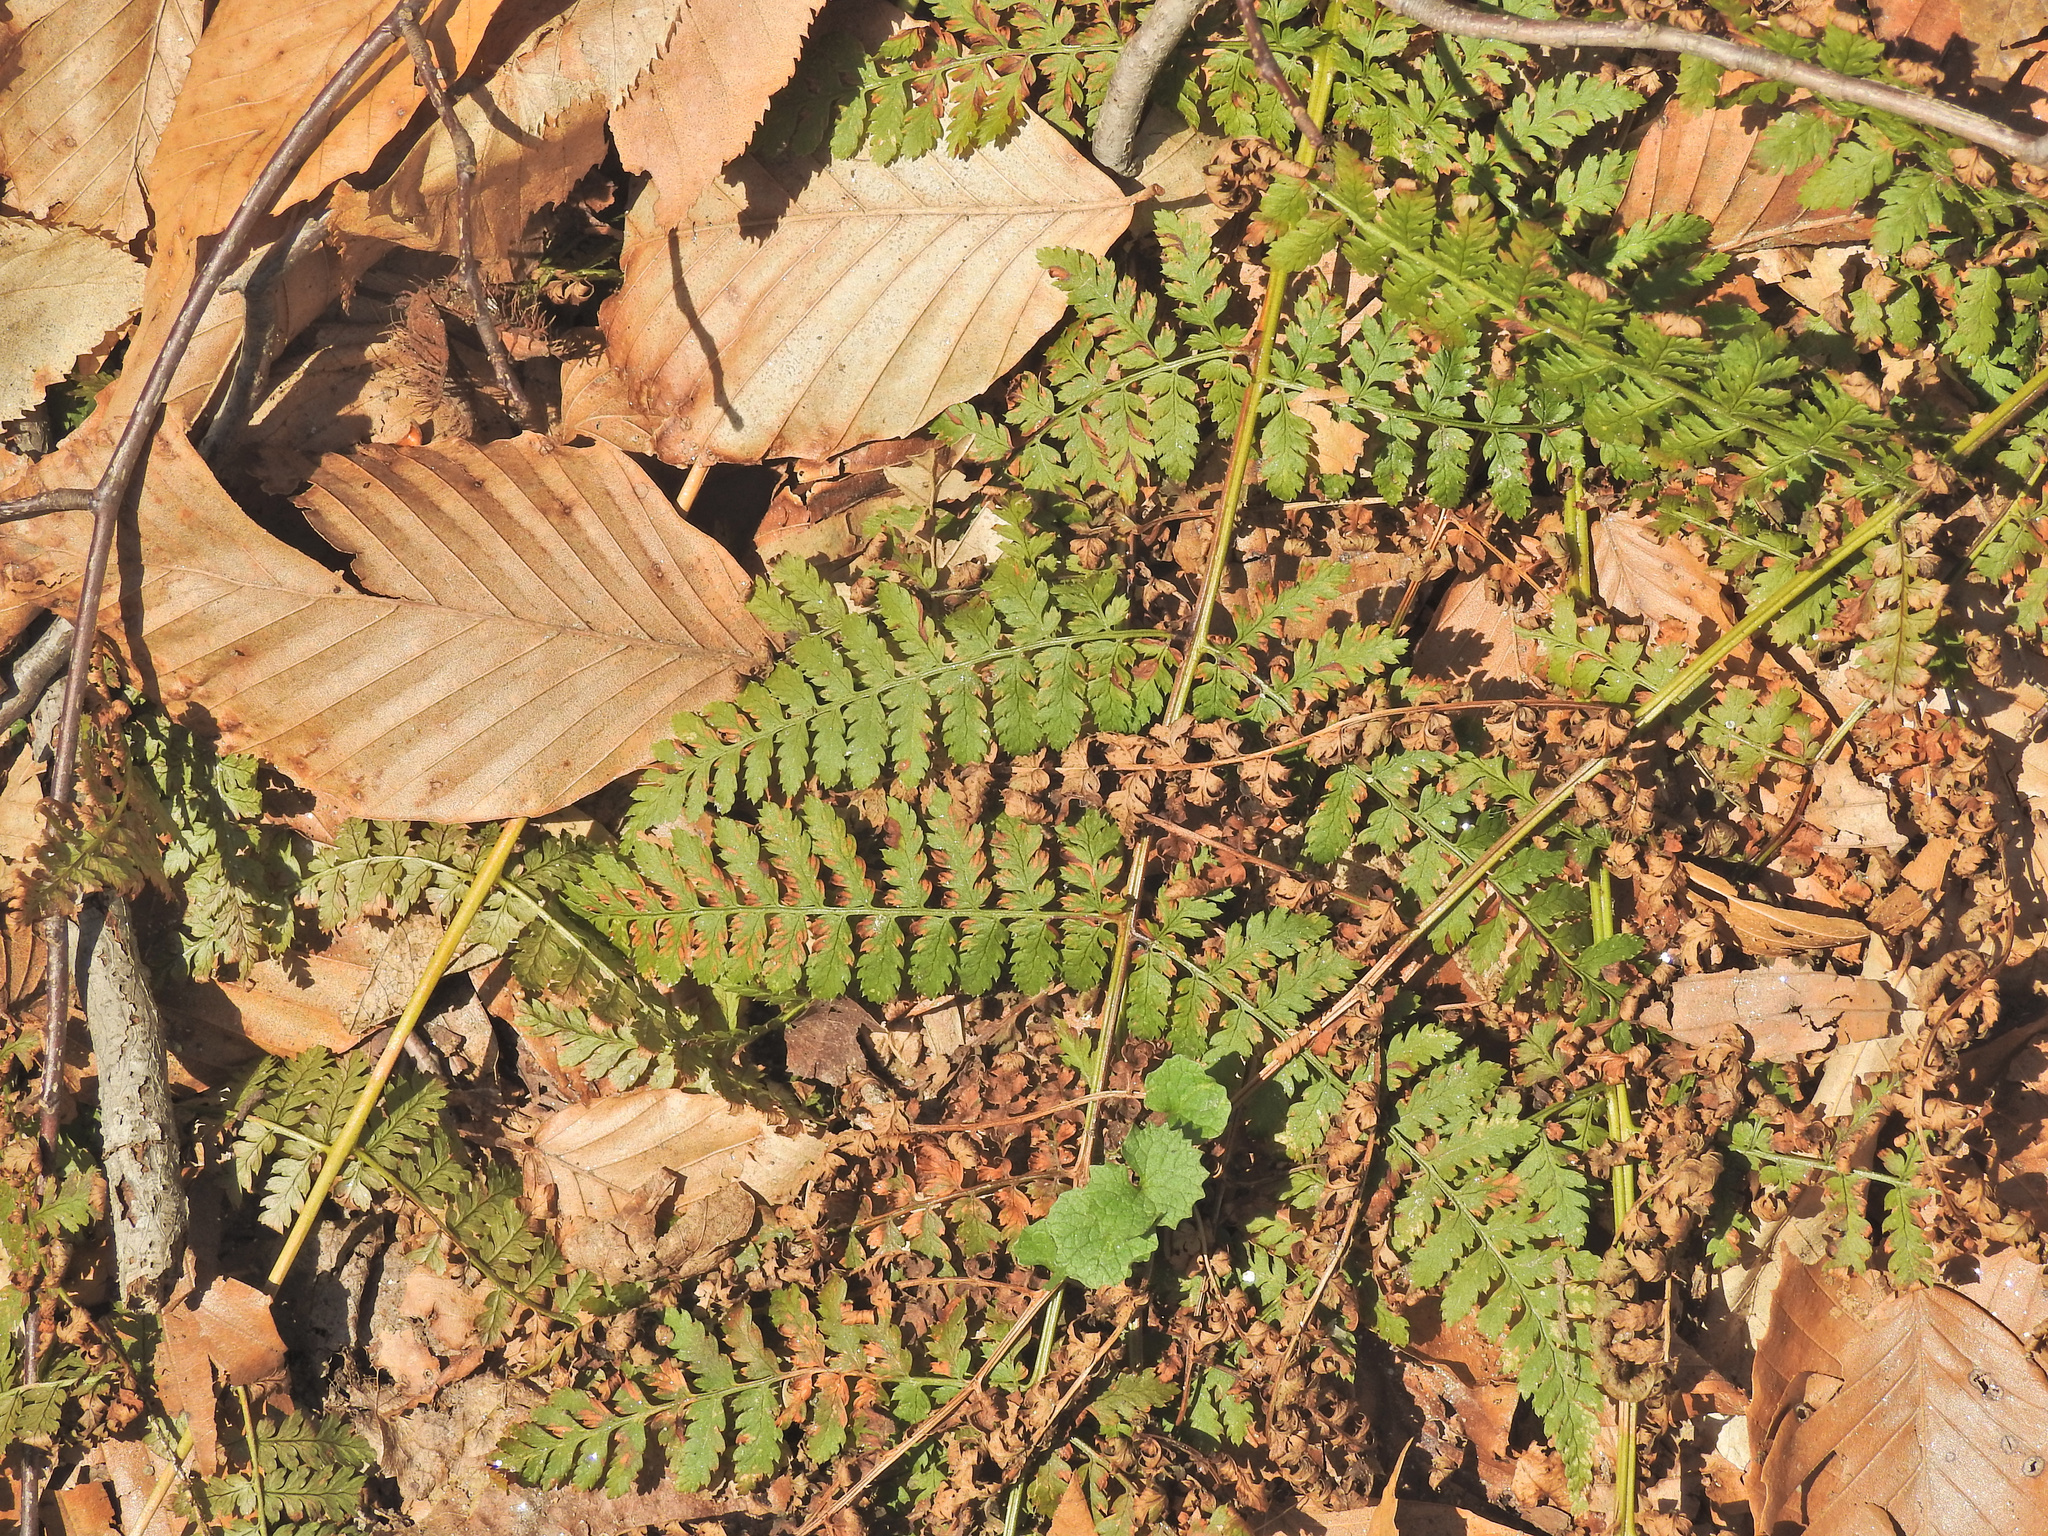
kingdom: Plantae
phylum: Tracheophyta
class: Polypodiopsida
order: Polypodiales
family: Dryopteridaceae
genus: Dryopteris
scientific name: Dryopteris intermedia
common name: Evergreen wood fern
